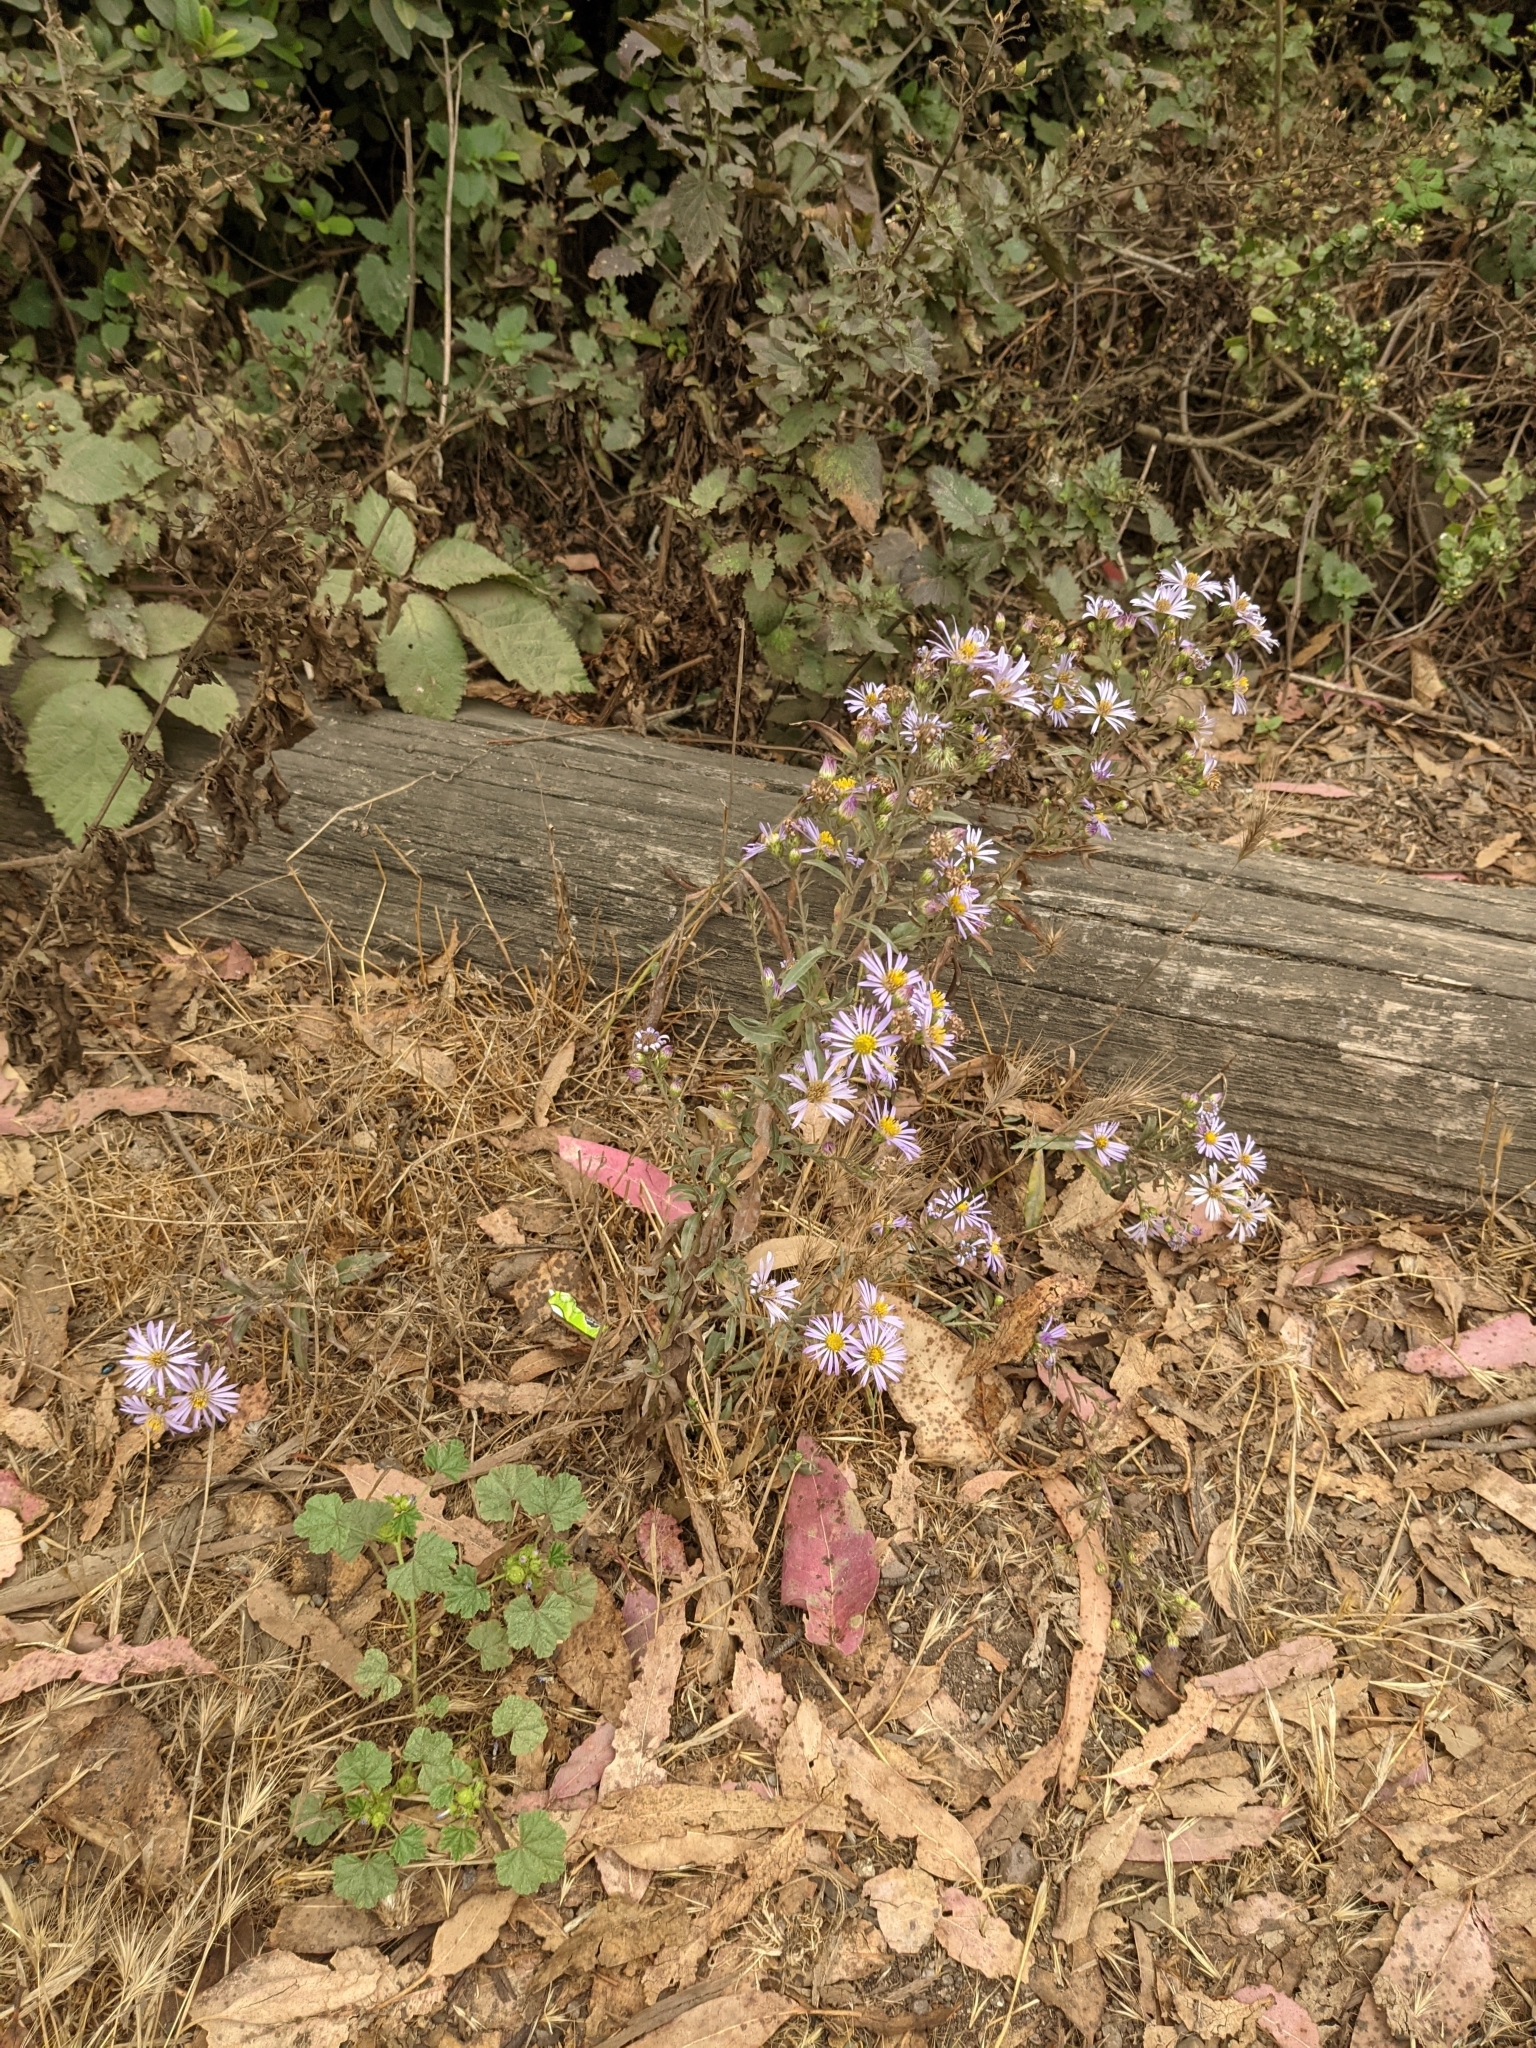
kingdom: Plantae
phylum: Tracheophyta
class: Magnoliopsida
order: Asterales
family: Asteraceae
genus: Symphyotrichum
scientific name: Symphyotrichum chilense
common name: Pacific aster
